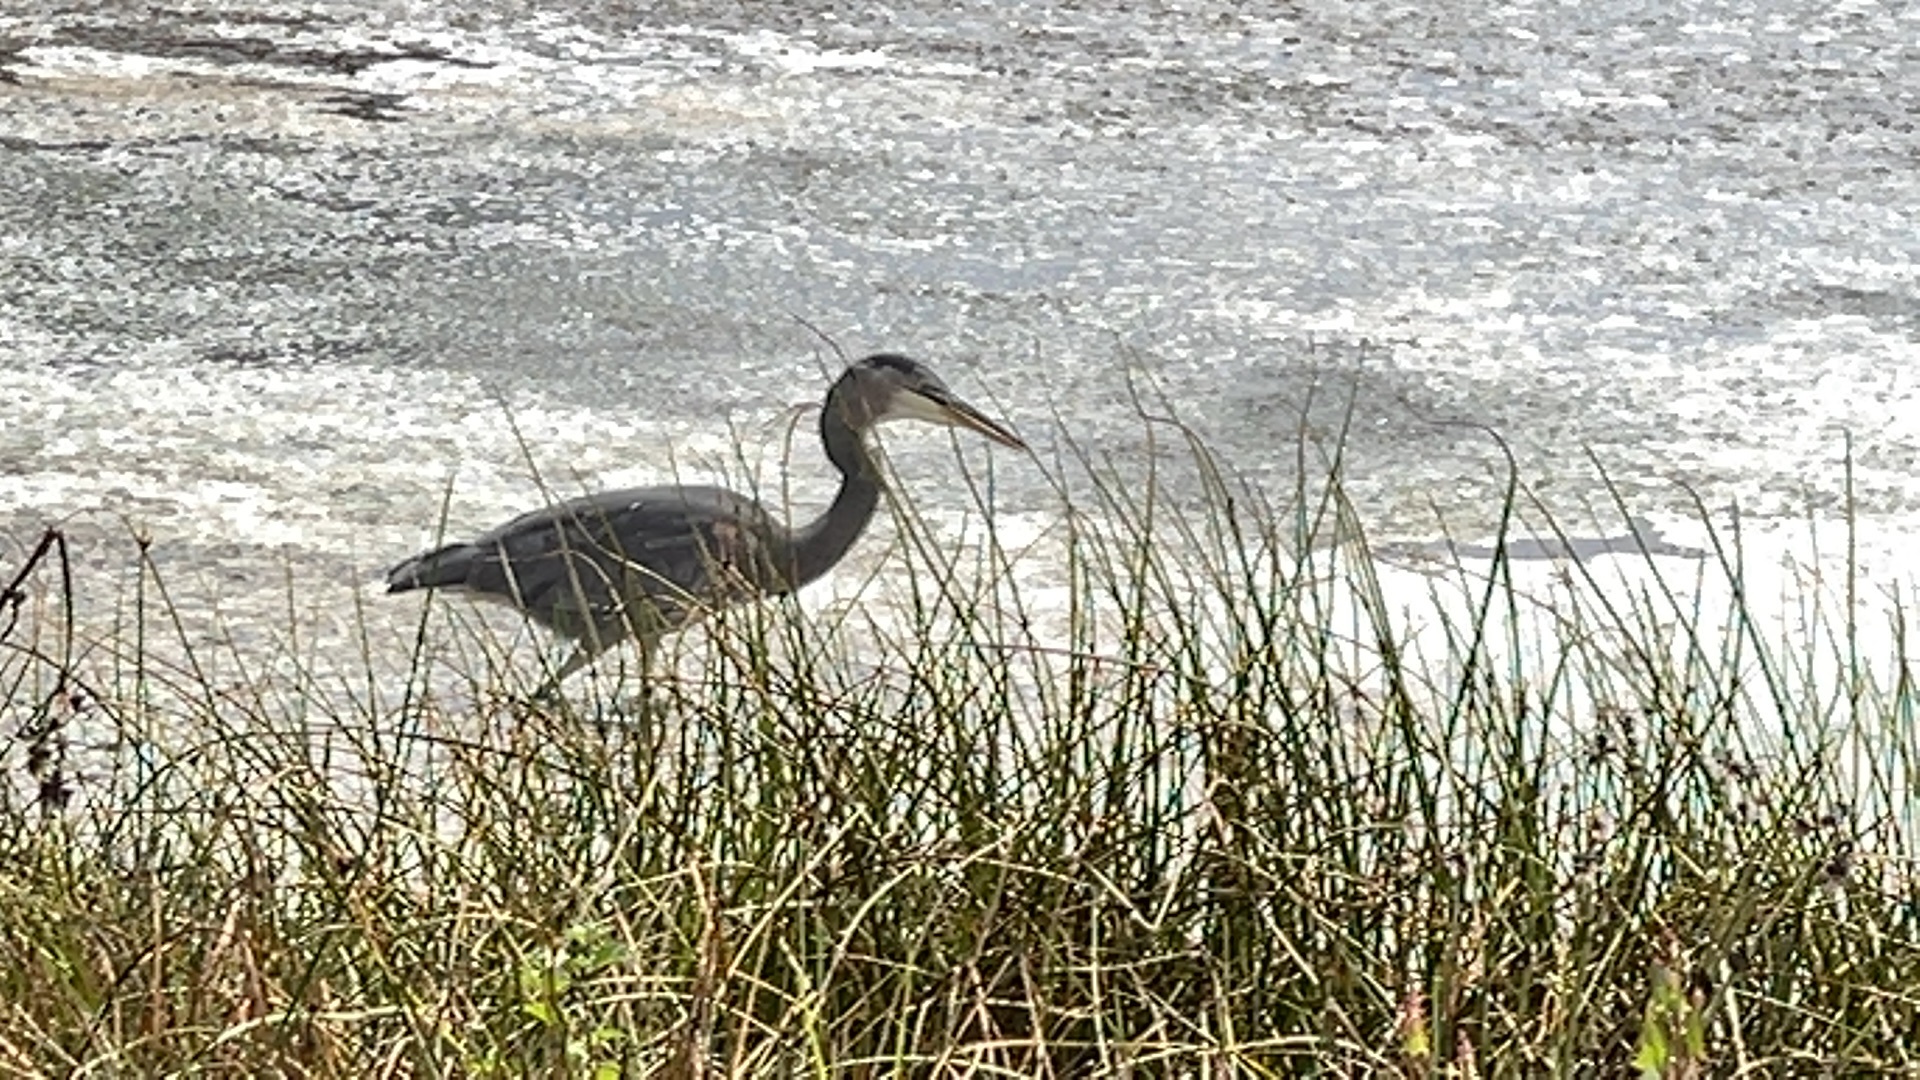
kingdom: Animalia
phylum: Chordata
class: Aves
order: Pelecaniformes
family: Ardeidae
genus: Ardea
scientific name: Ardea herodias
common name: Great blue heron
